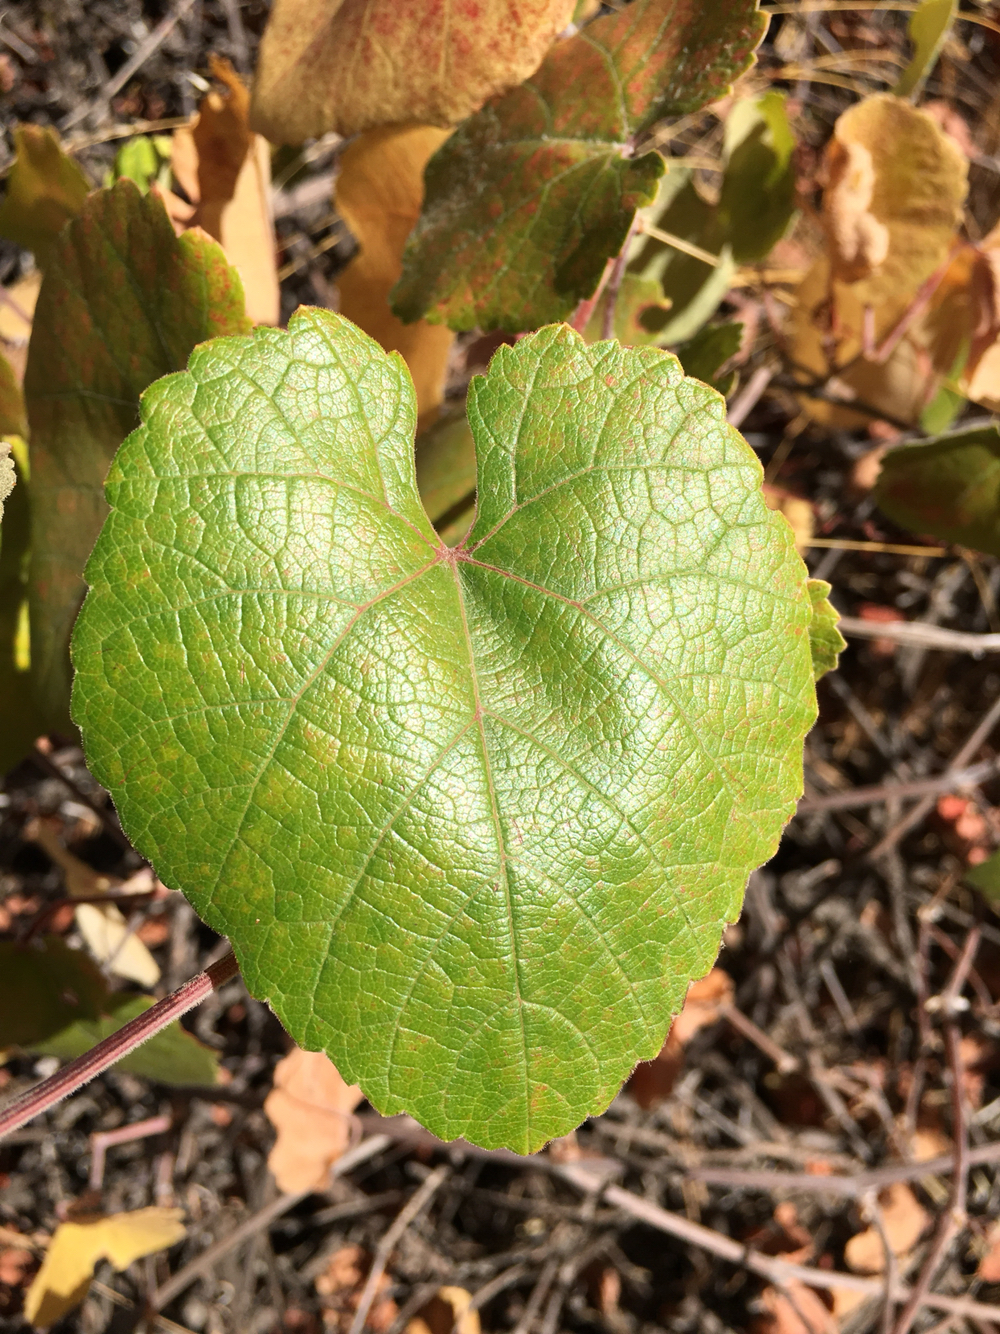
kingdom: Plantae
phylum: Tracheophyta
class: Magnoliopsida
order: Vitales
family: Vitaceae
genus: Vitis
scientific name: Vitis californica
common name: California wild grape
